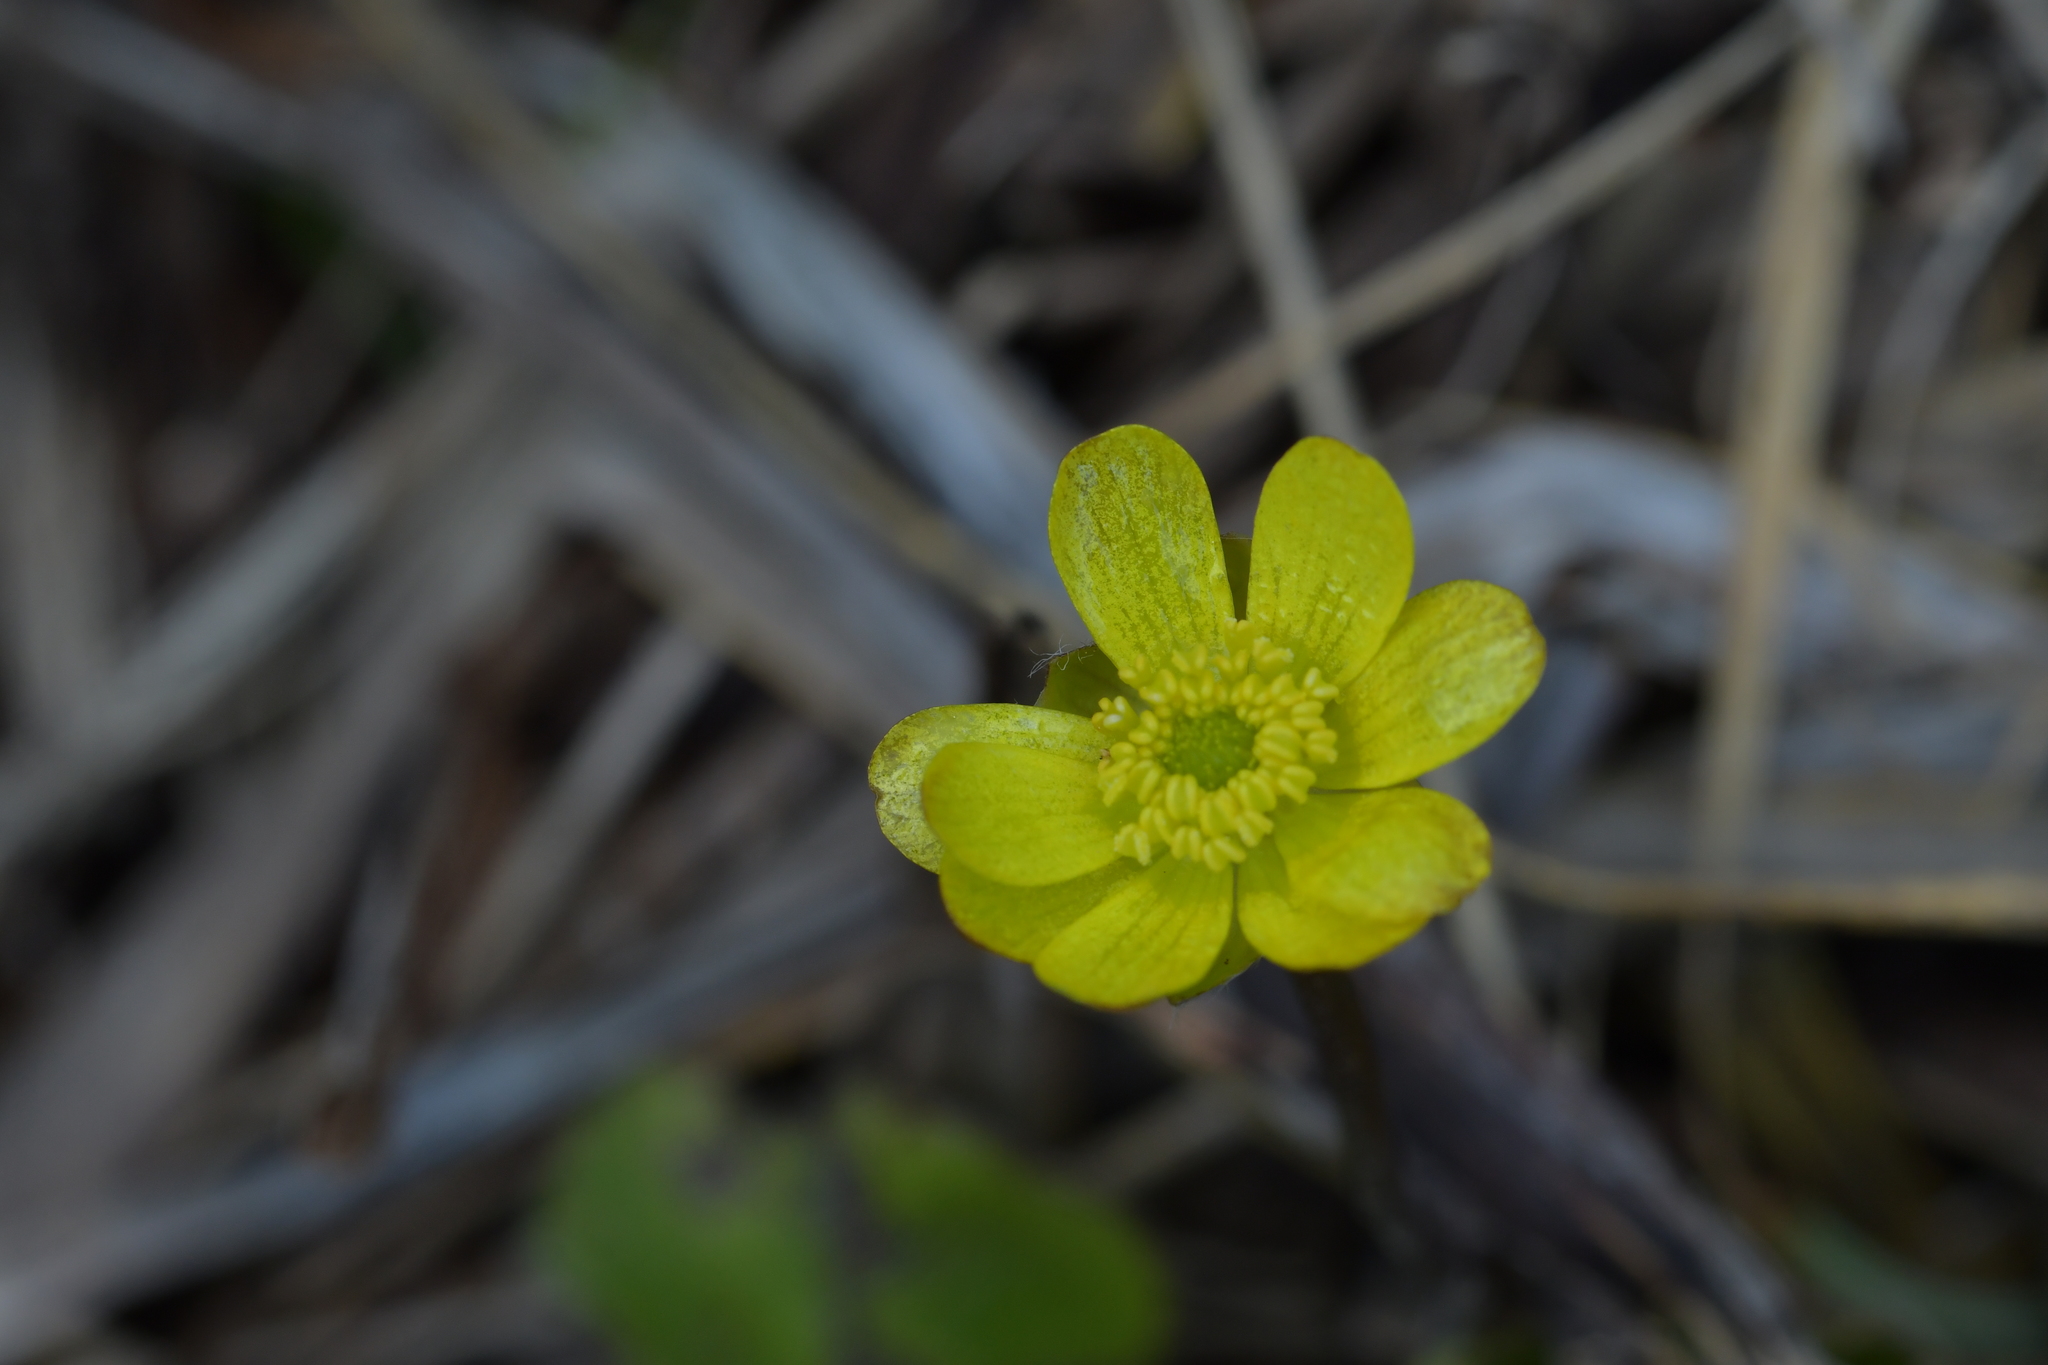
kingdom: Plantae
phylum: Tracheophyta
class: Magnoliopsida
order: Ranunculales
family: Ranunculaceae
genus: Ranunculus
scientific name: Ranunculus insignis
